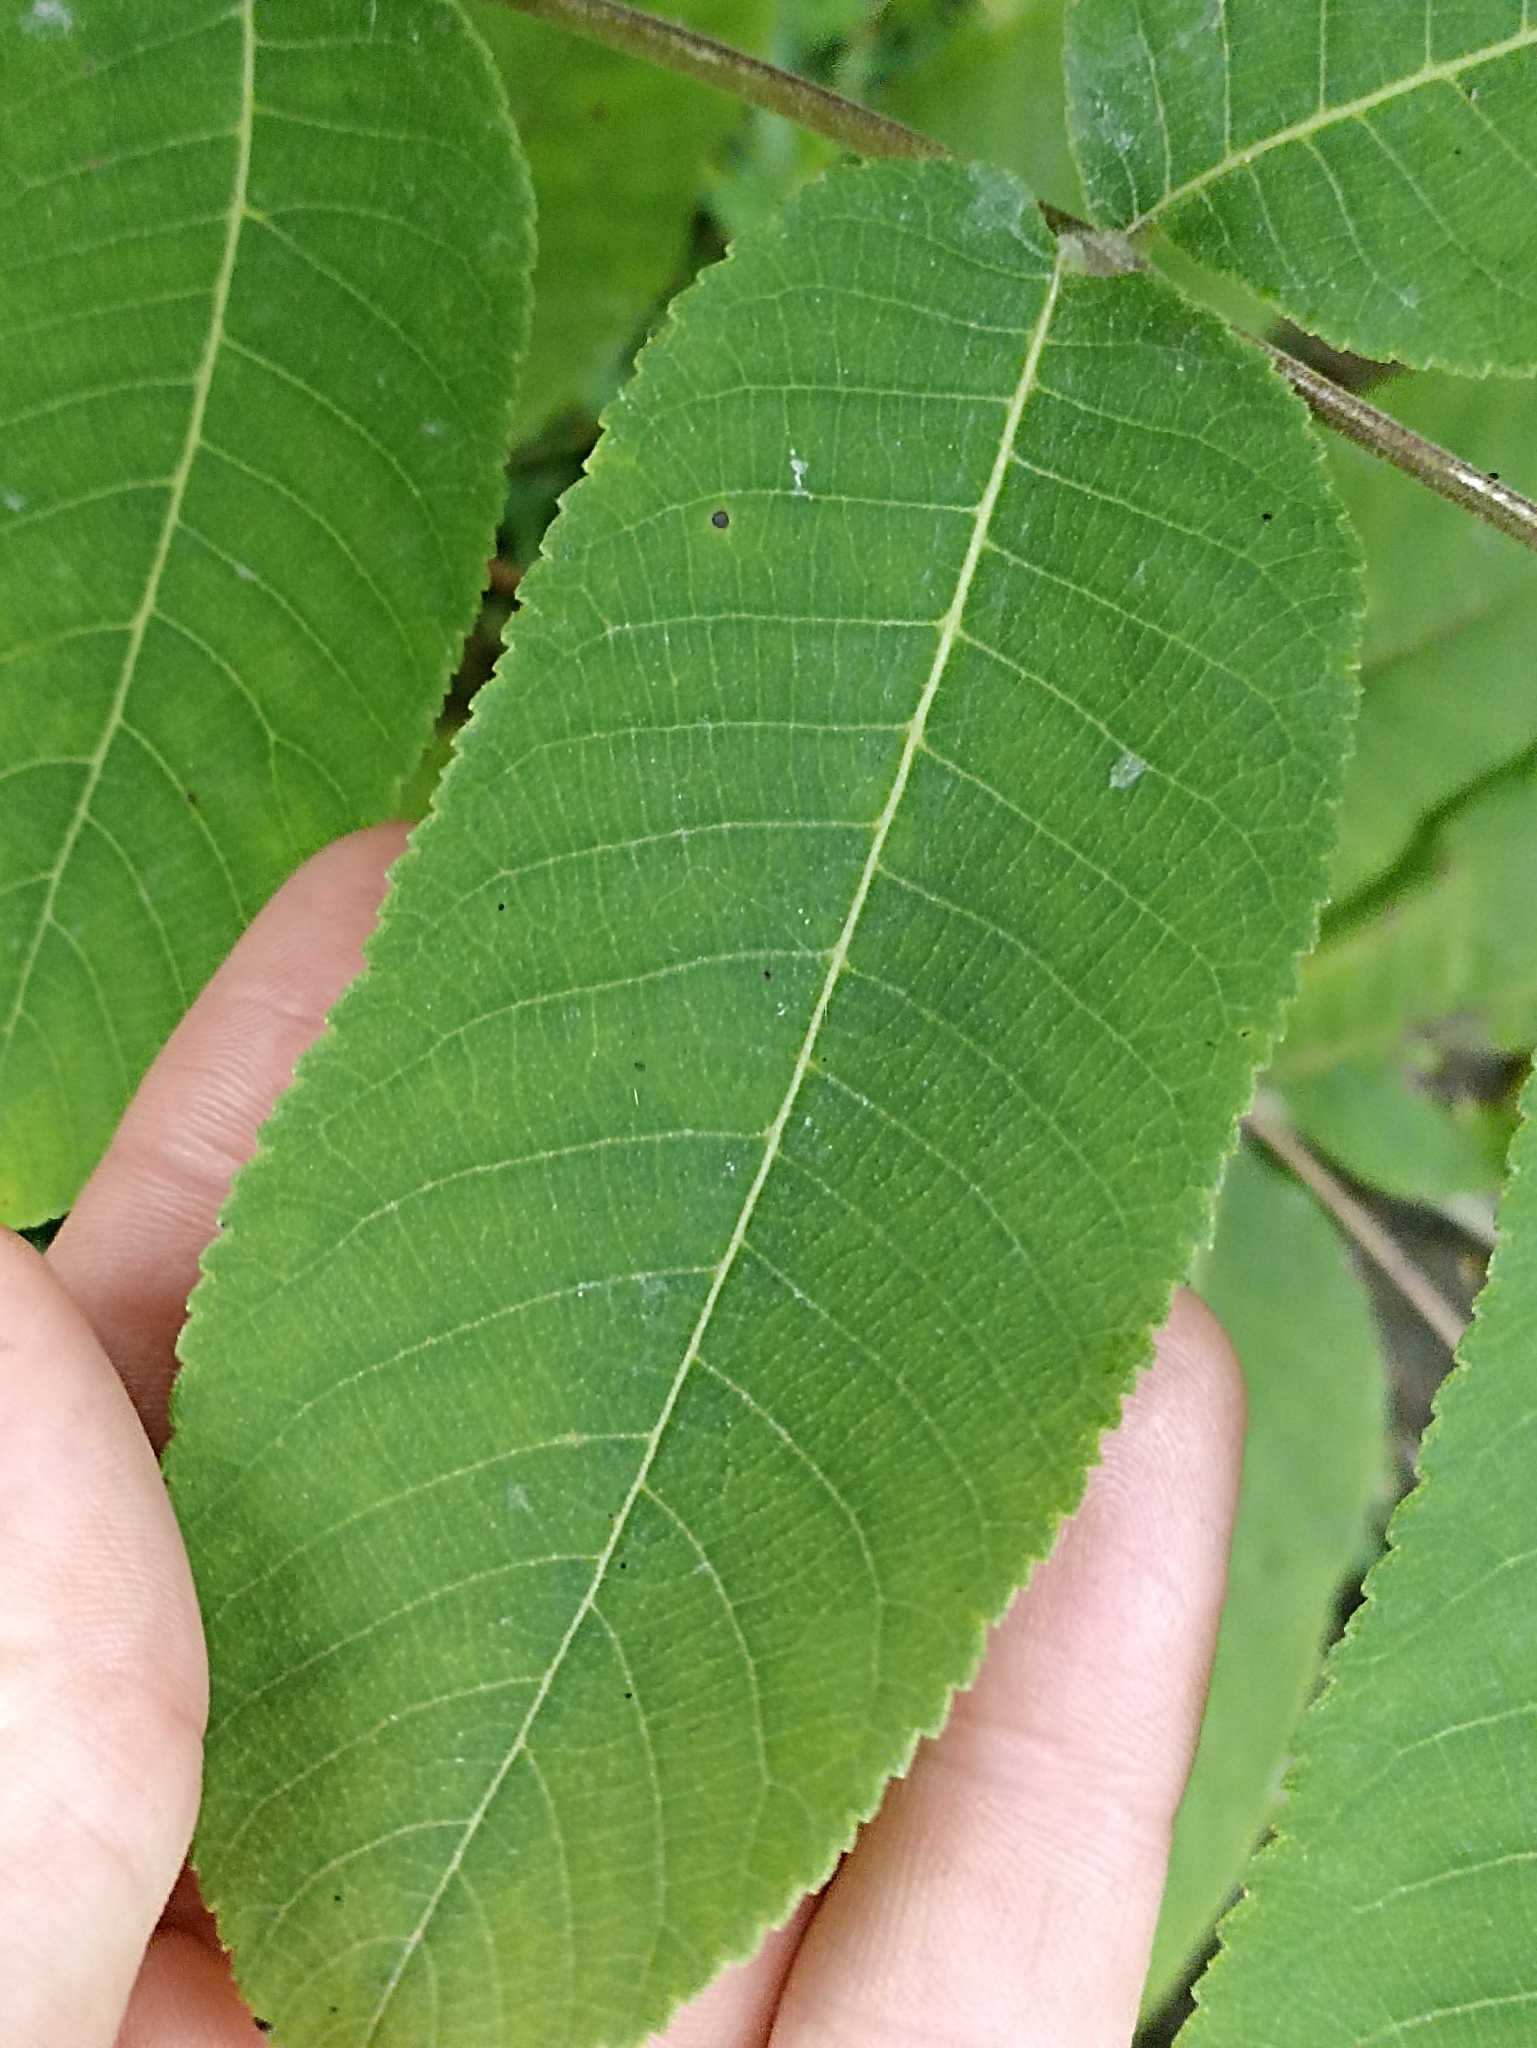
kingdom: Plantae
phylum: Tracheophyta
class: Magnoliopsida
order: Fagales
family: Juglandaceae
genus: Juglans
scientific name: Juglans ailantifolia
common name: Japanese walnut
